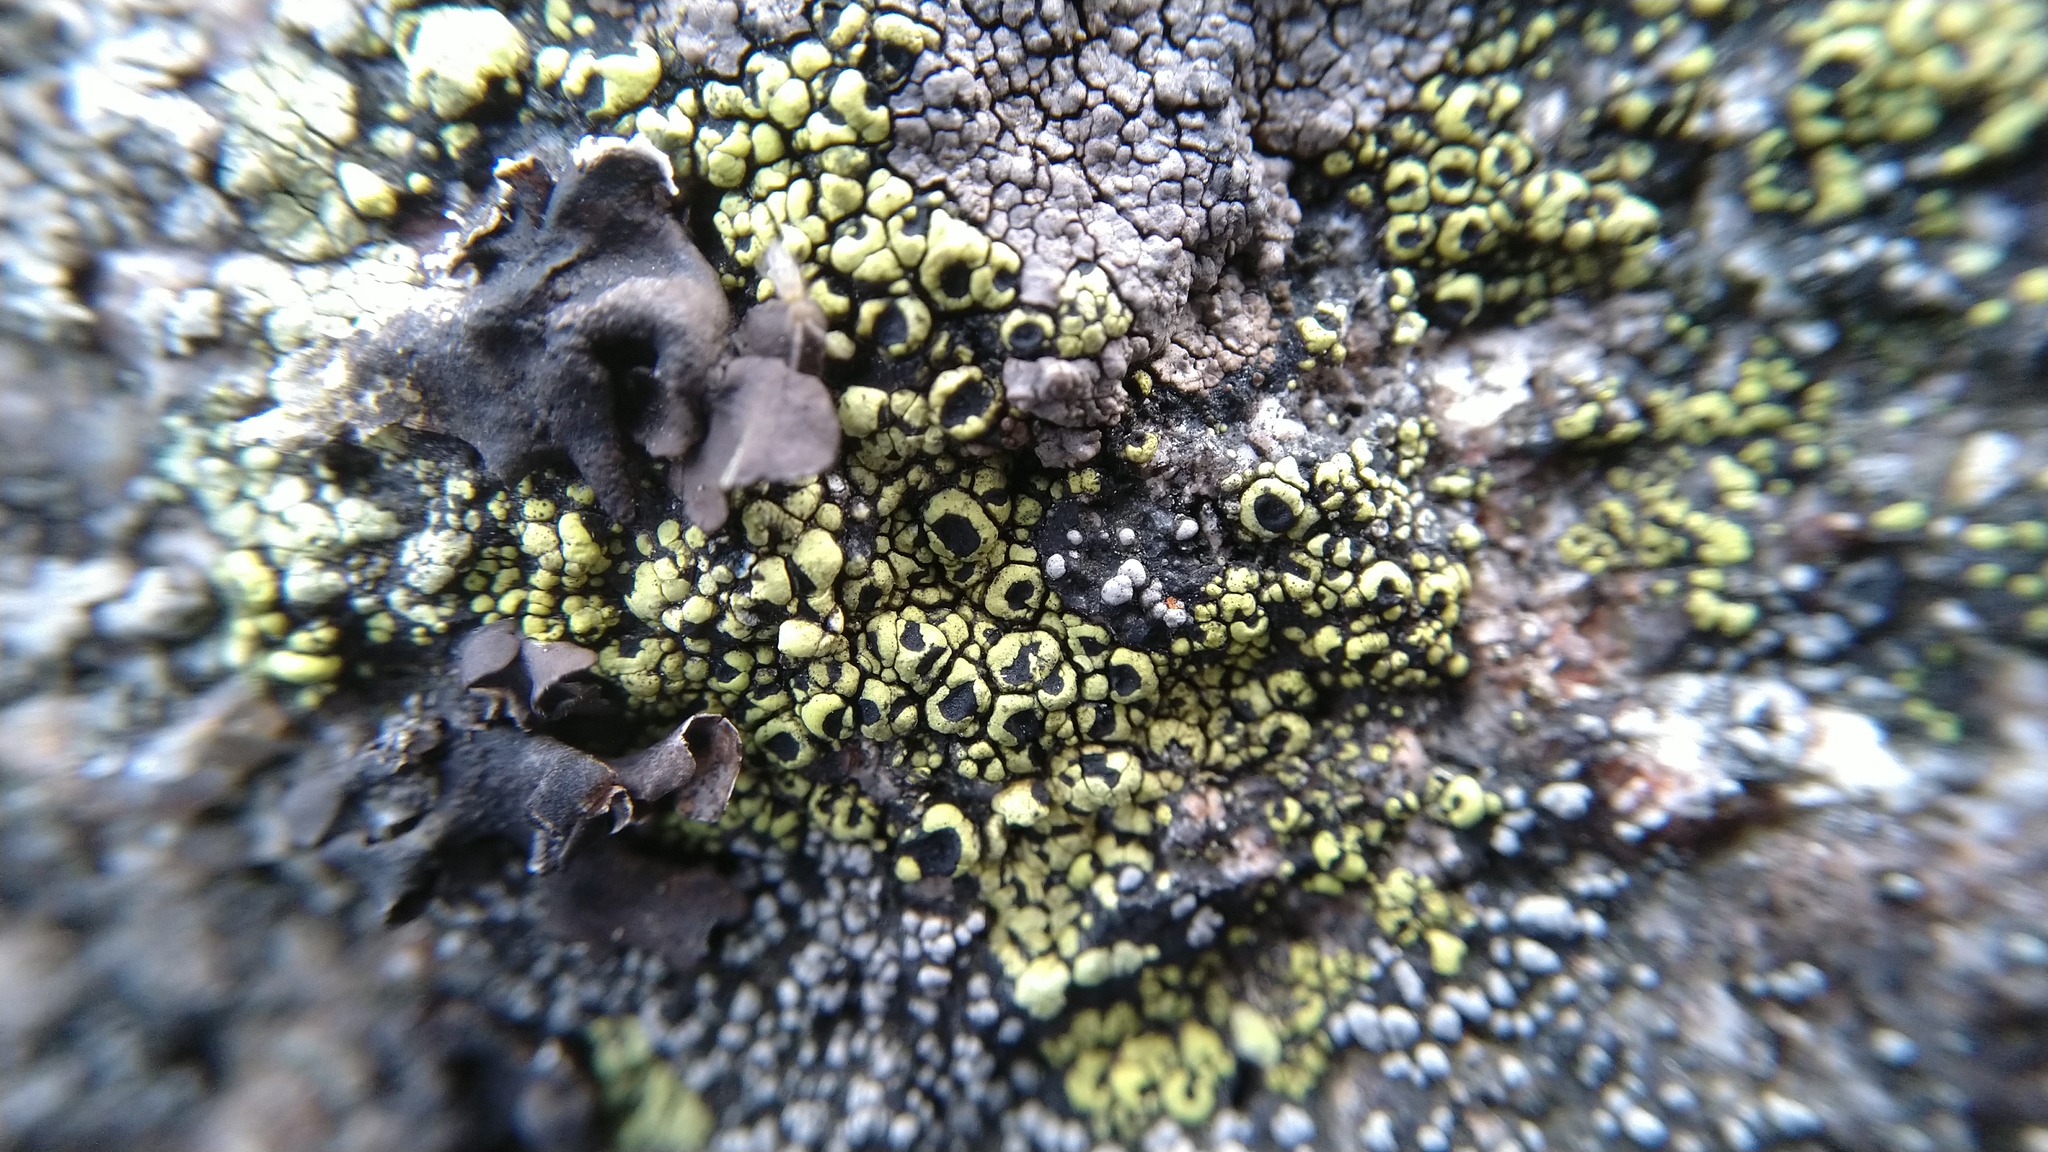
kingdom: Fungi
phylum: Ascomycota
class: Lecanoromycetes
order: Rhizocarpales
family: Rhizocarpaceae
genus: Rhizocarpon
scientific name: Rhizocarpon lecanorinum
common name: Crescent map lichen
